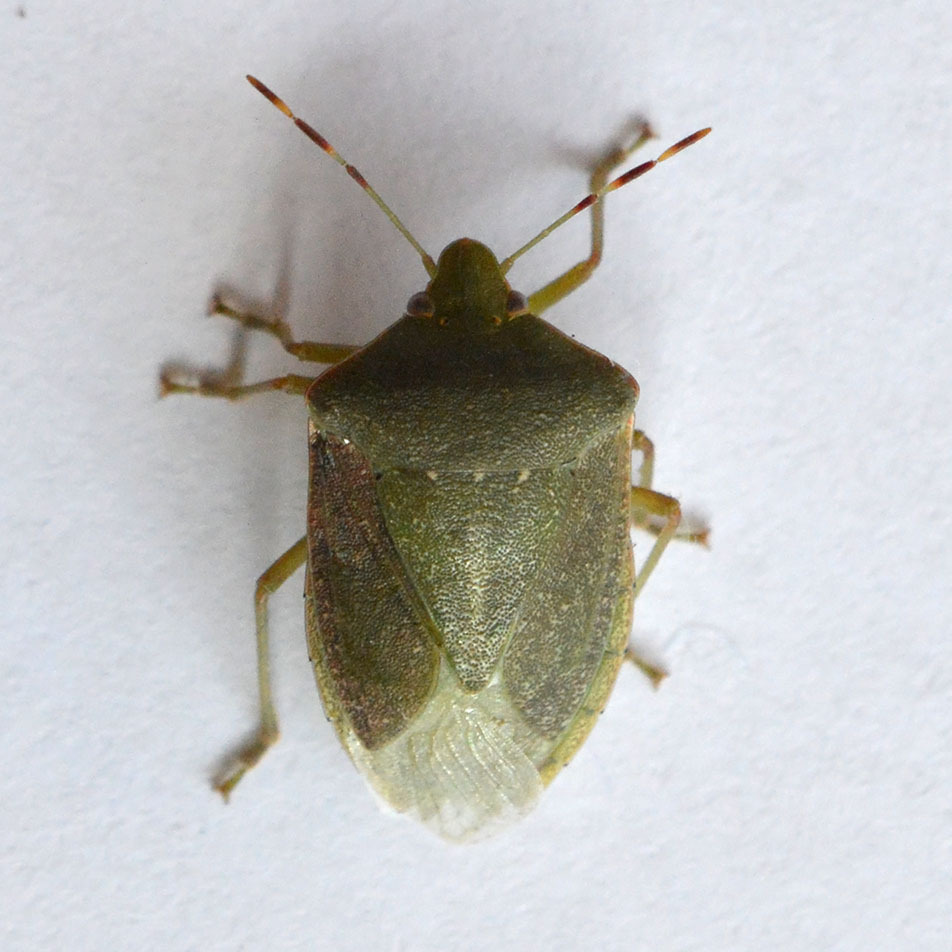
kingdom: Animalia
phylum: Arthropoda
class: Insecta
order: Hemiptera
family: Pentatomidae
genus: Nezara
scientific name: Nezara viridula
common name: Southern green stink bug
